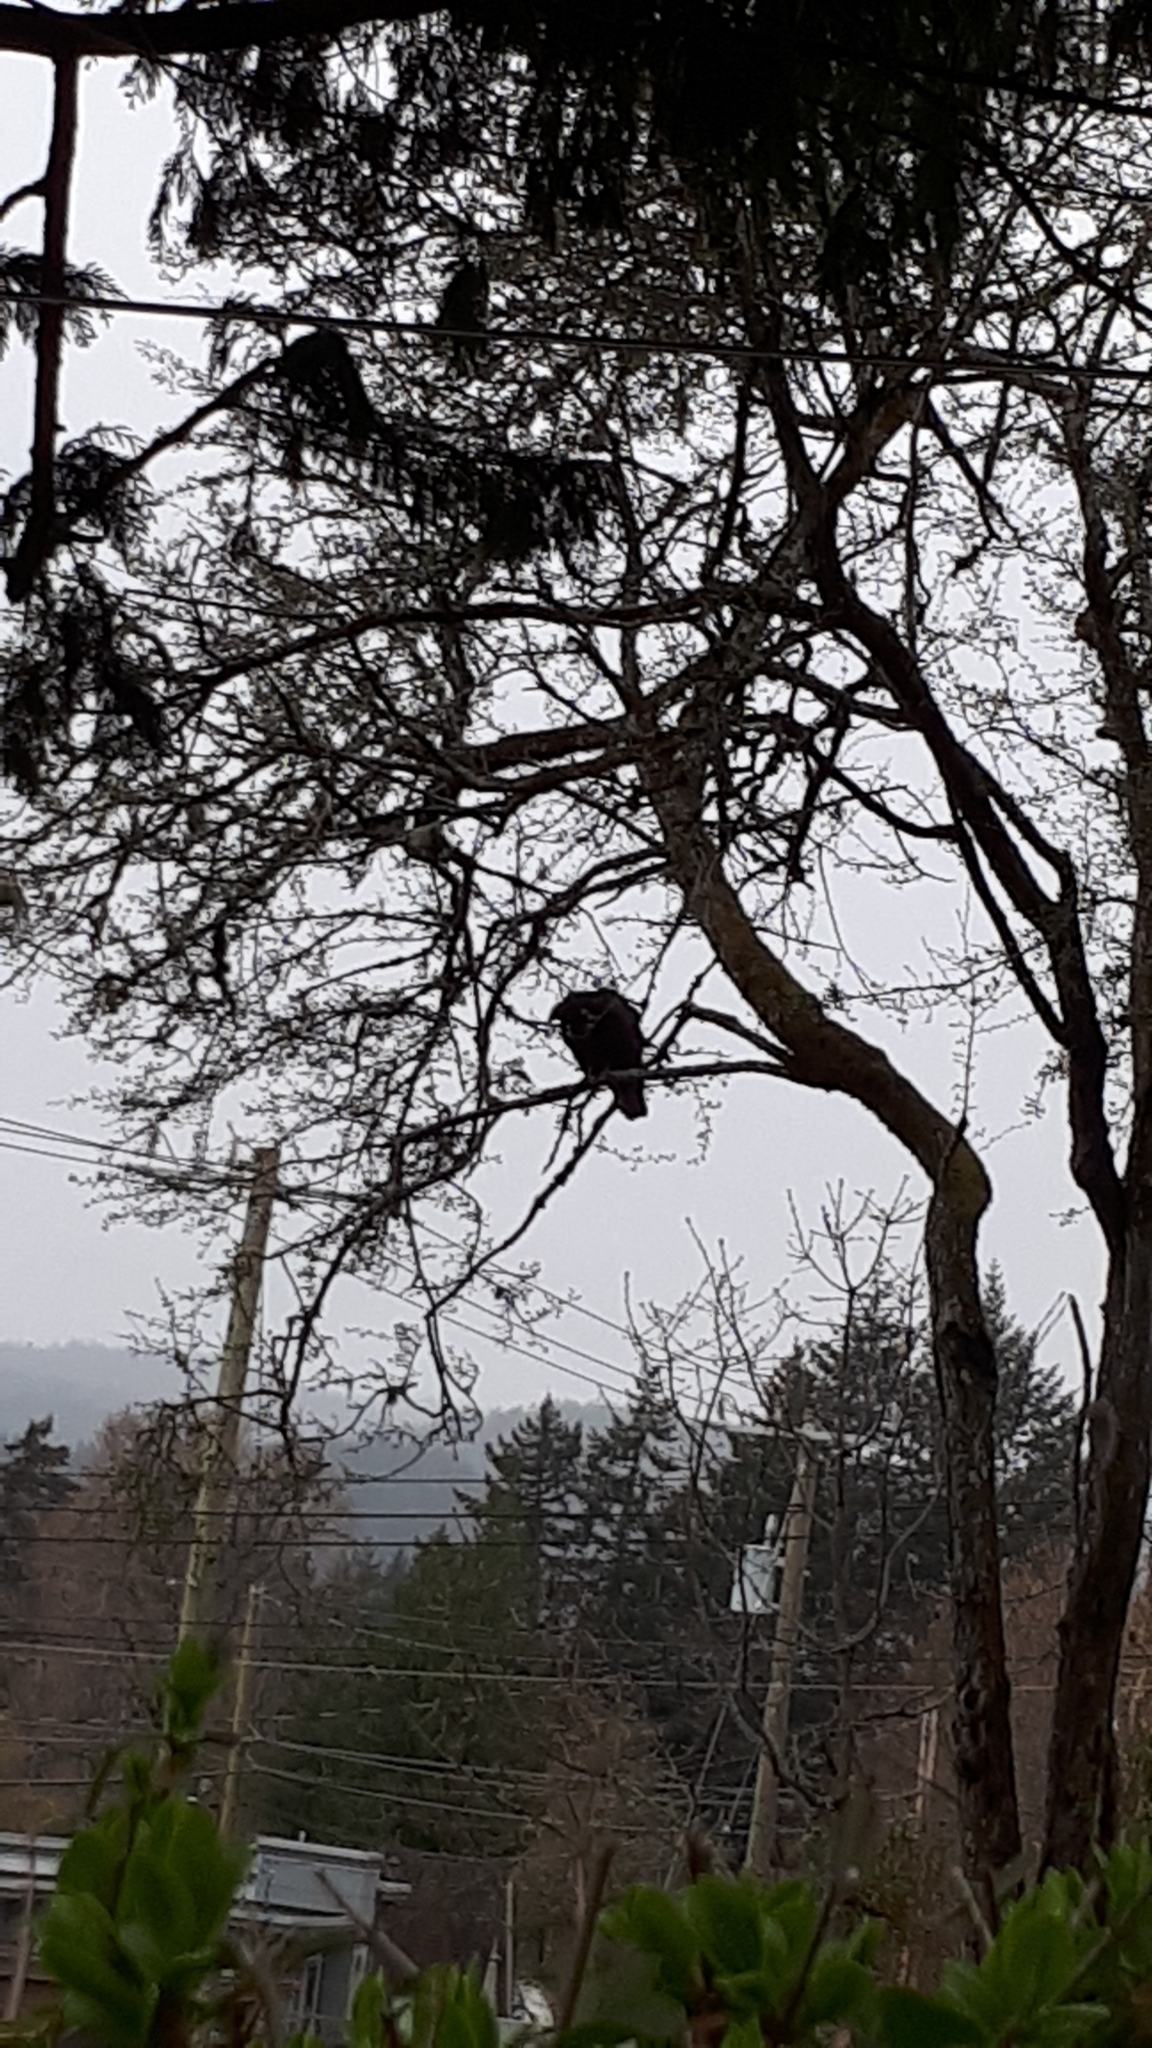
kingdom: Animalia
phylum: Chordata
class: Aves
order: Accipitriformes
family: Cathartidae
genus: Cathartes
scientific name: Cathartes aura
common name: Turkey vulture
